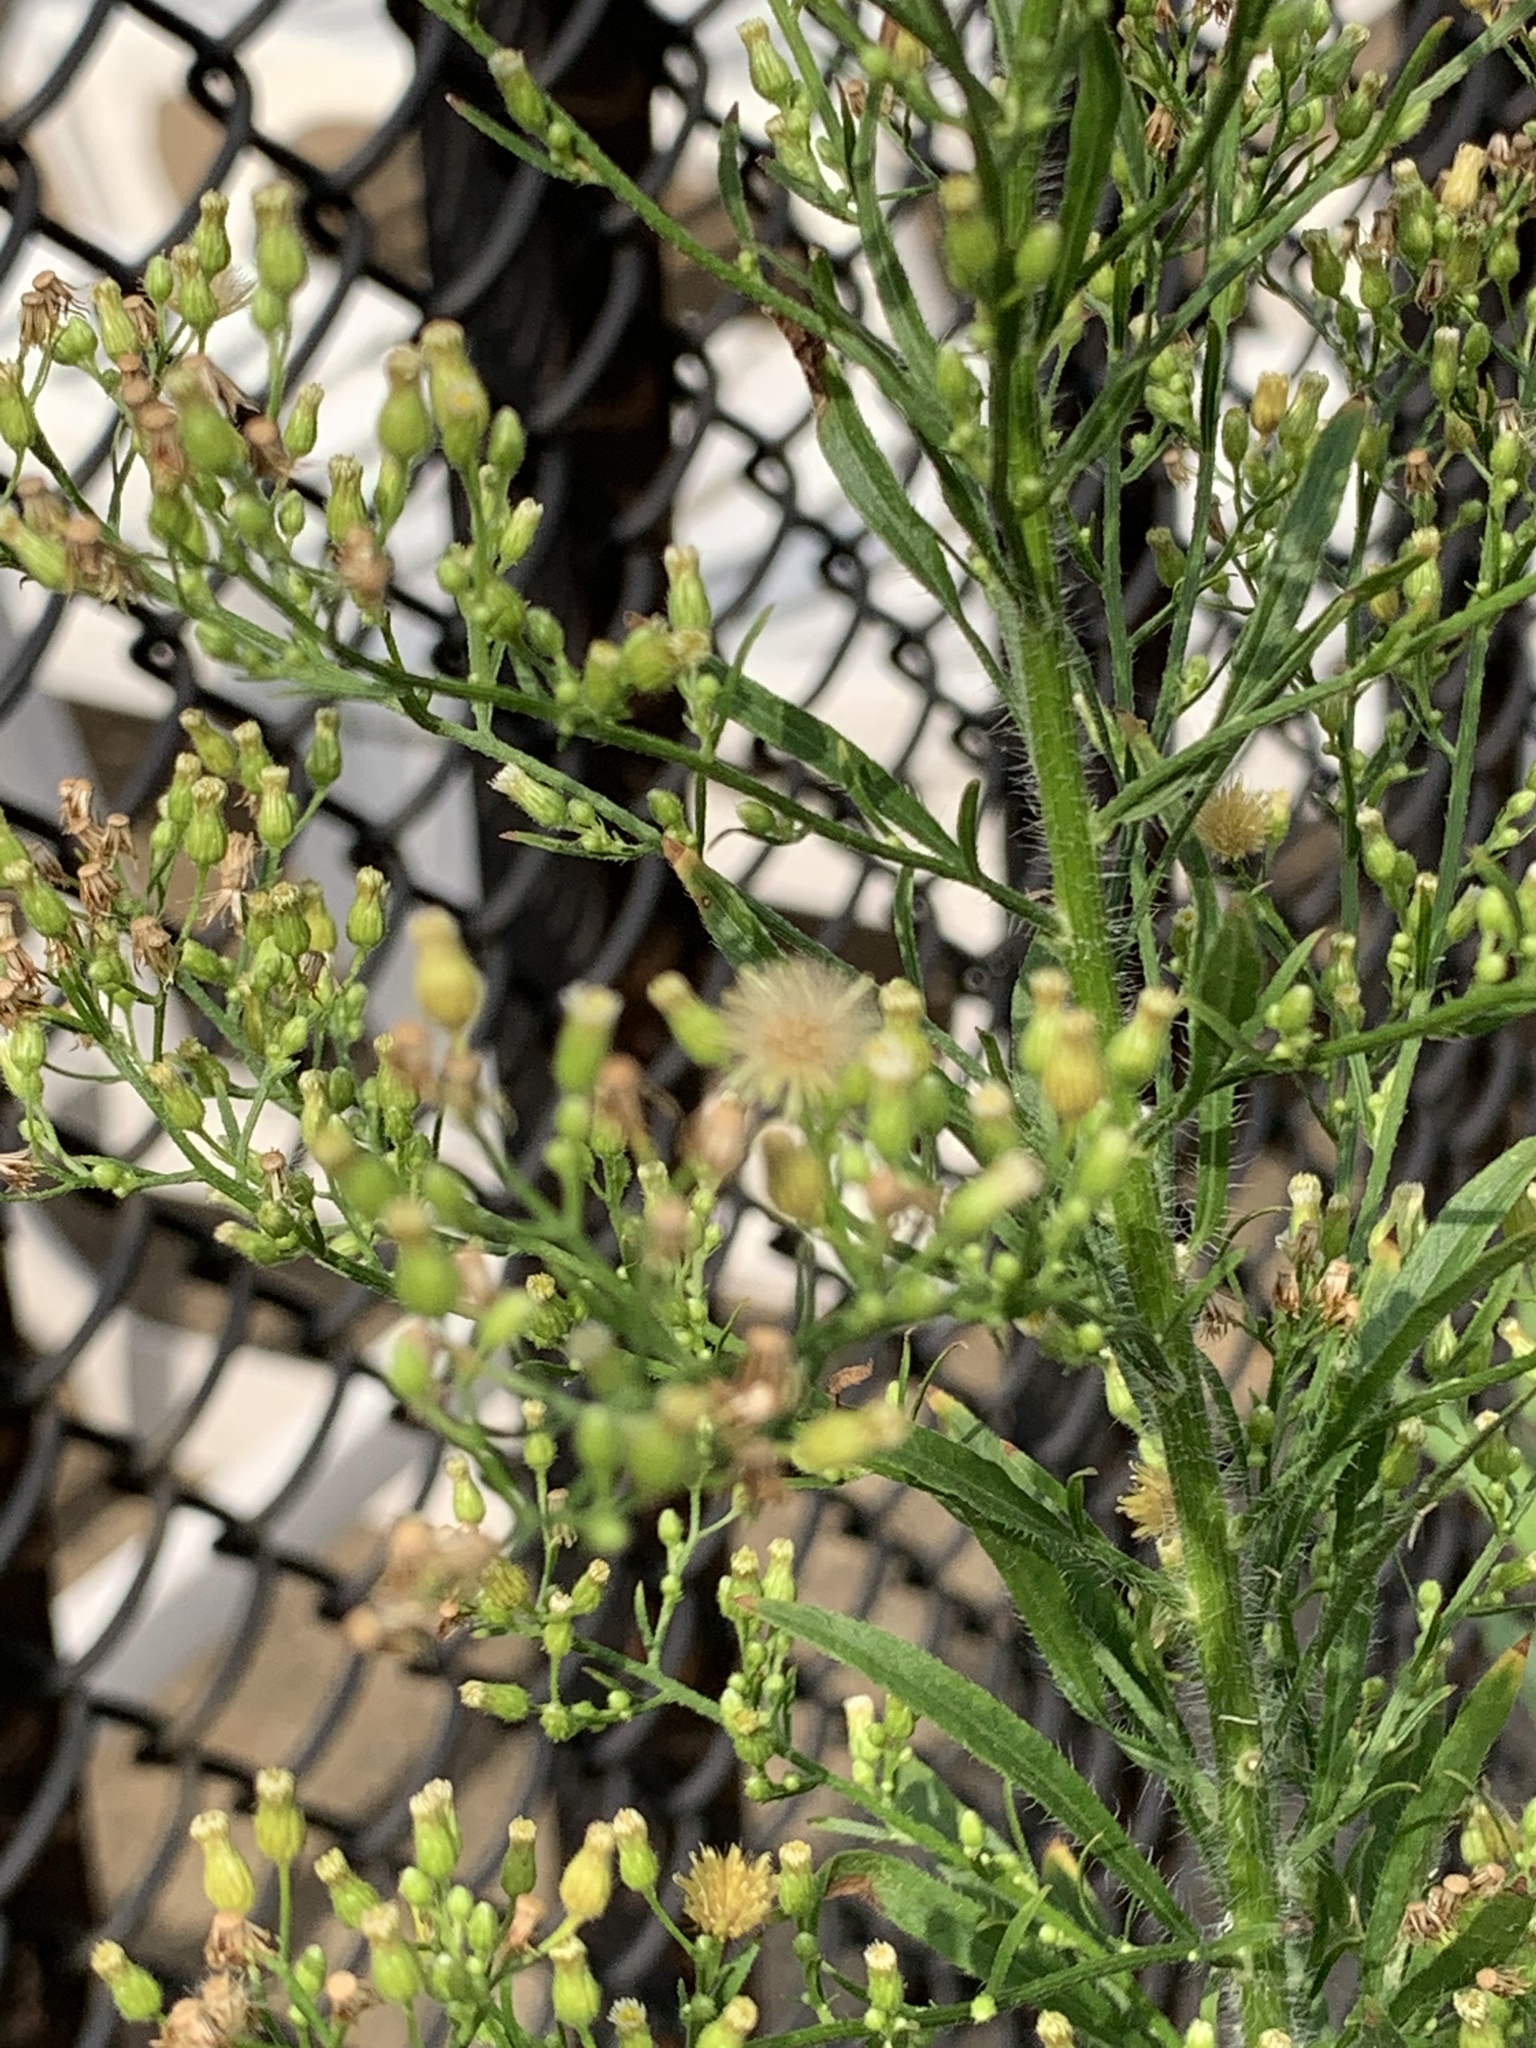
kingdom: Plantae
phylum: Tracheophyta
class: Magnoliopsida
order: Asterales
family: Asteraceae
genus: Erigeron
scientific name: Erigeron canadensis
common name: Canadian fleabane
